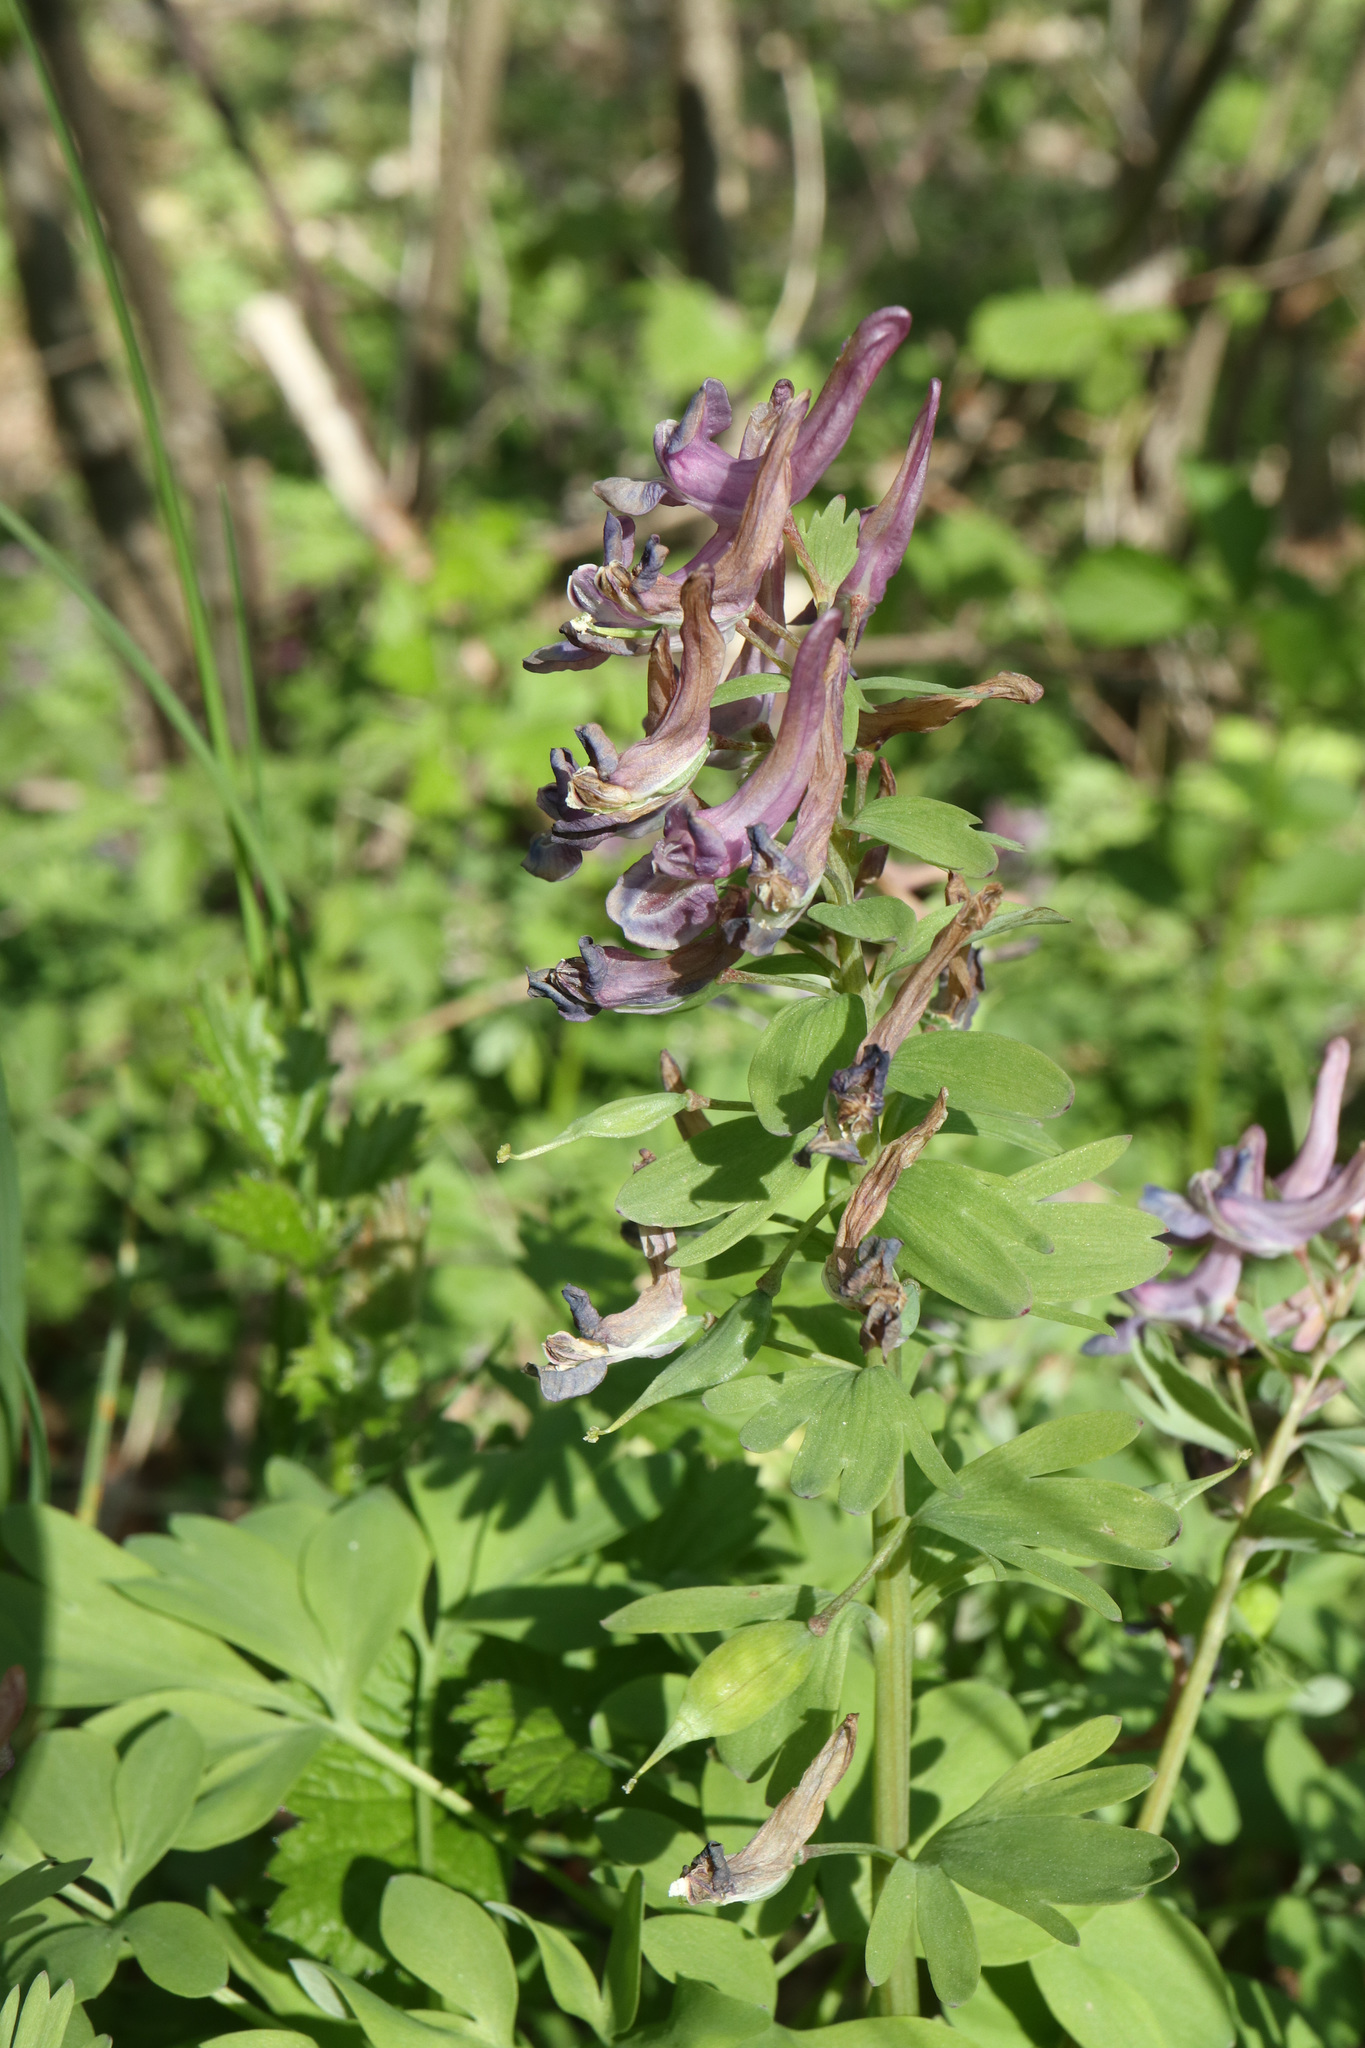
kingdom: Plantae
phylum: Tracheophyta
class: Magnoliopsida
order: Ranunculales
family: Papaveraceae
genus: Corydalis
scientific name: Corydalis solida
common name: Bird-in-a-bush
